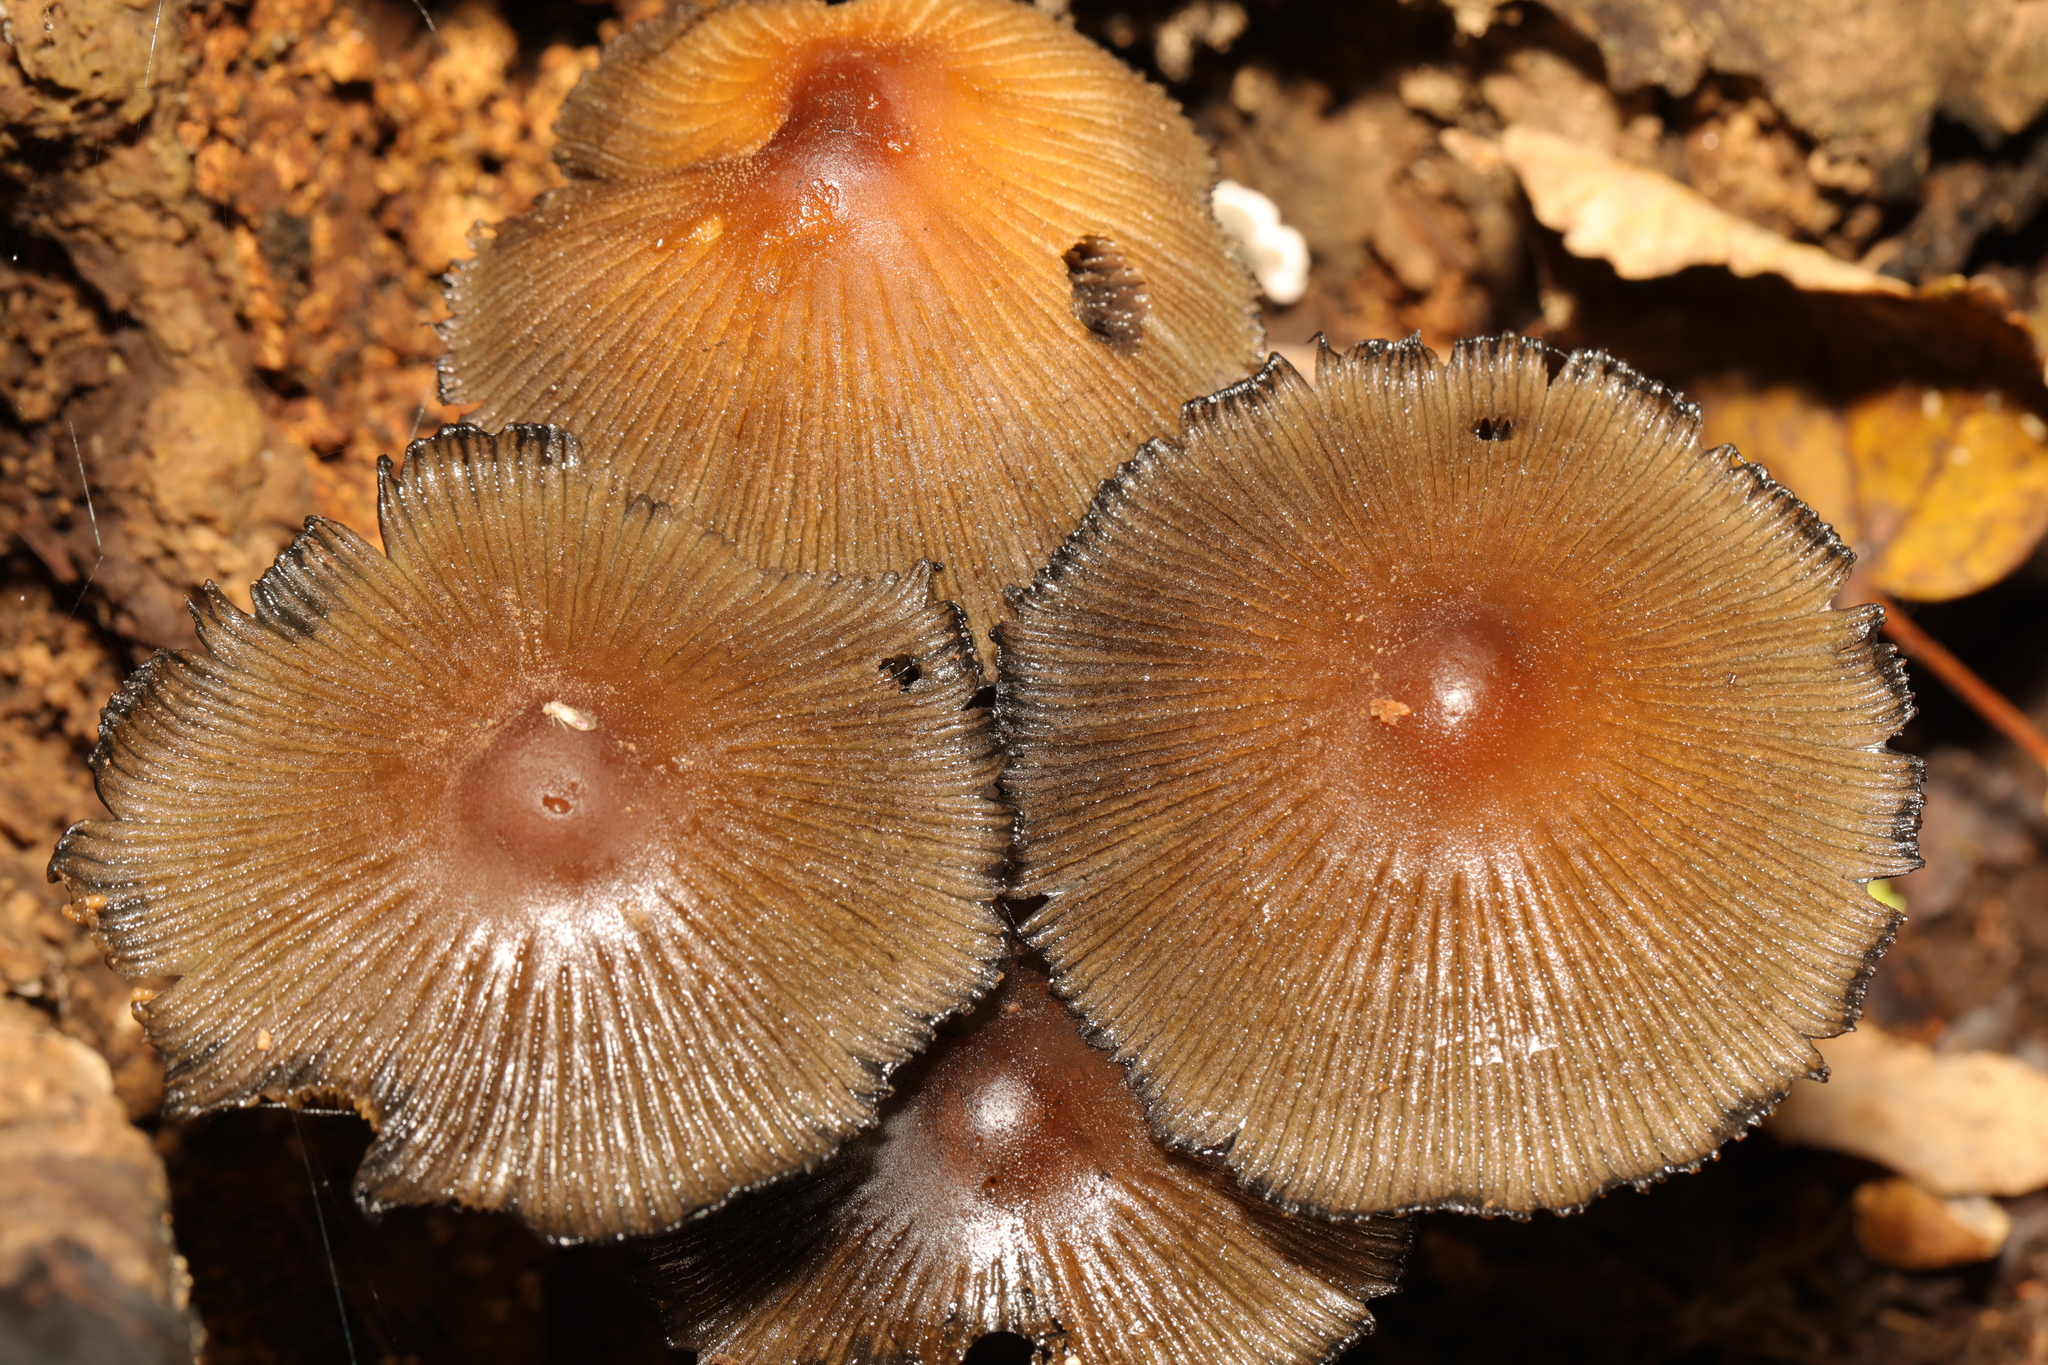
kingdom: Fungi
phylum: Basidiomycota
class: Agaricomycetes
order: Agaricales
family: Psathyrellaceae
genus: Coprinellus
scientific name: Coprinellus micaceus
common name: Glistening ink-cap
